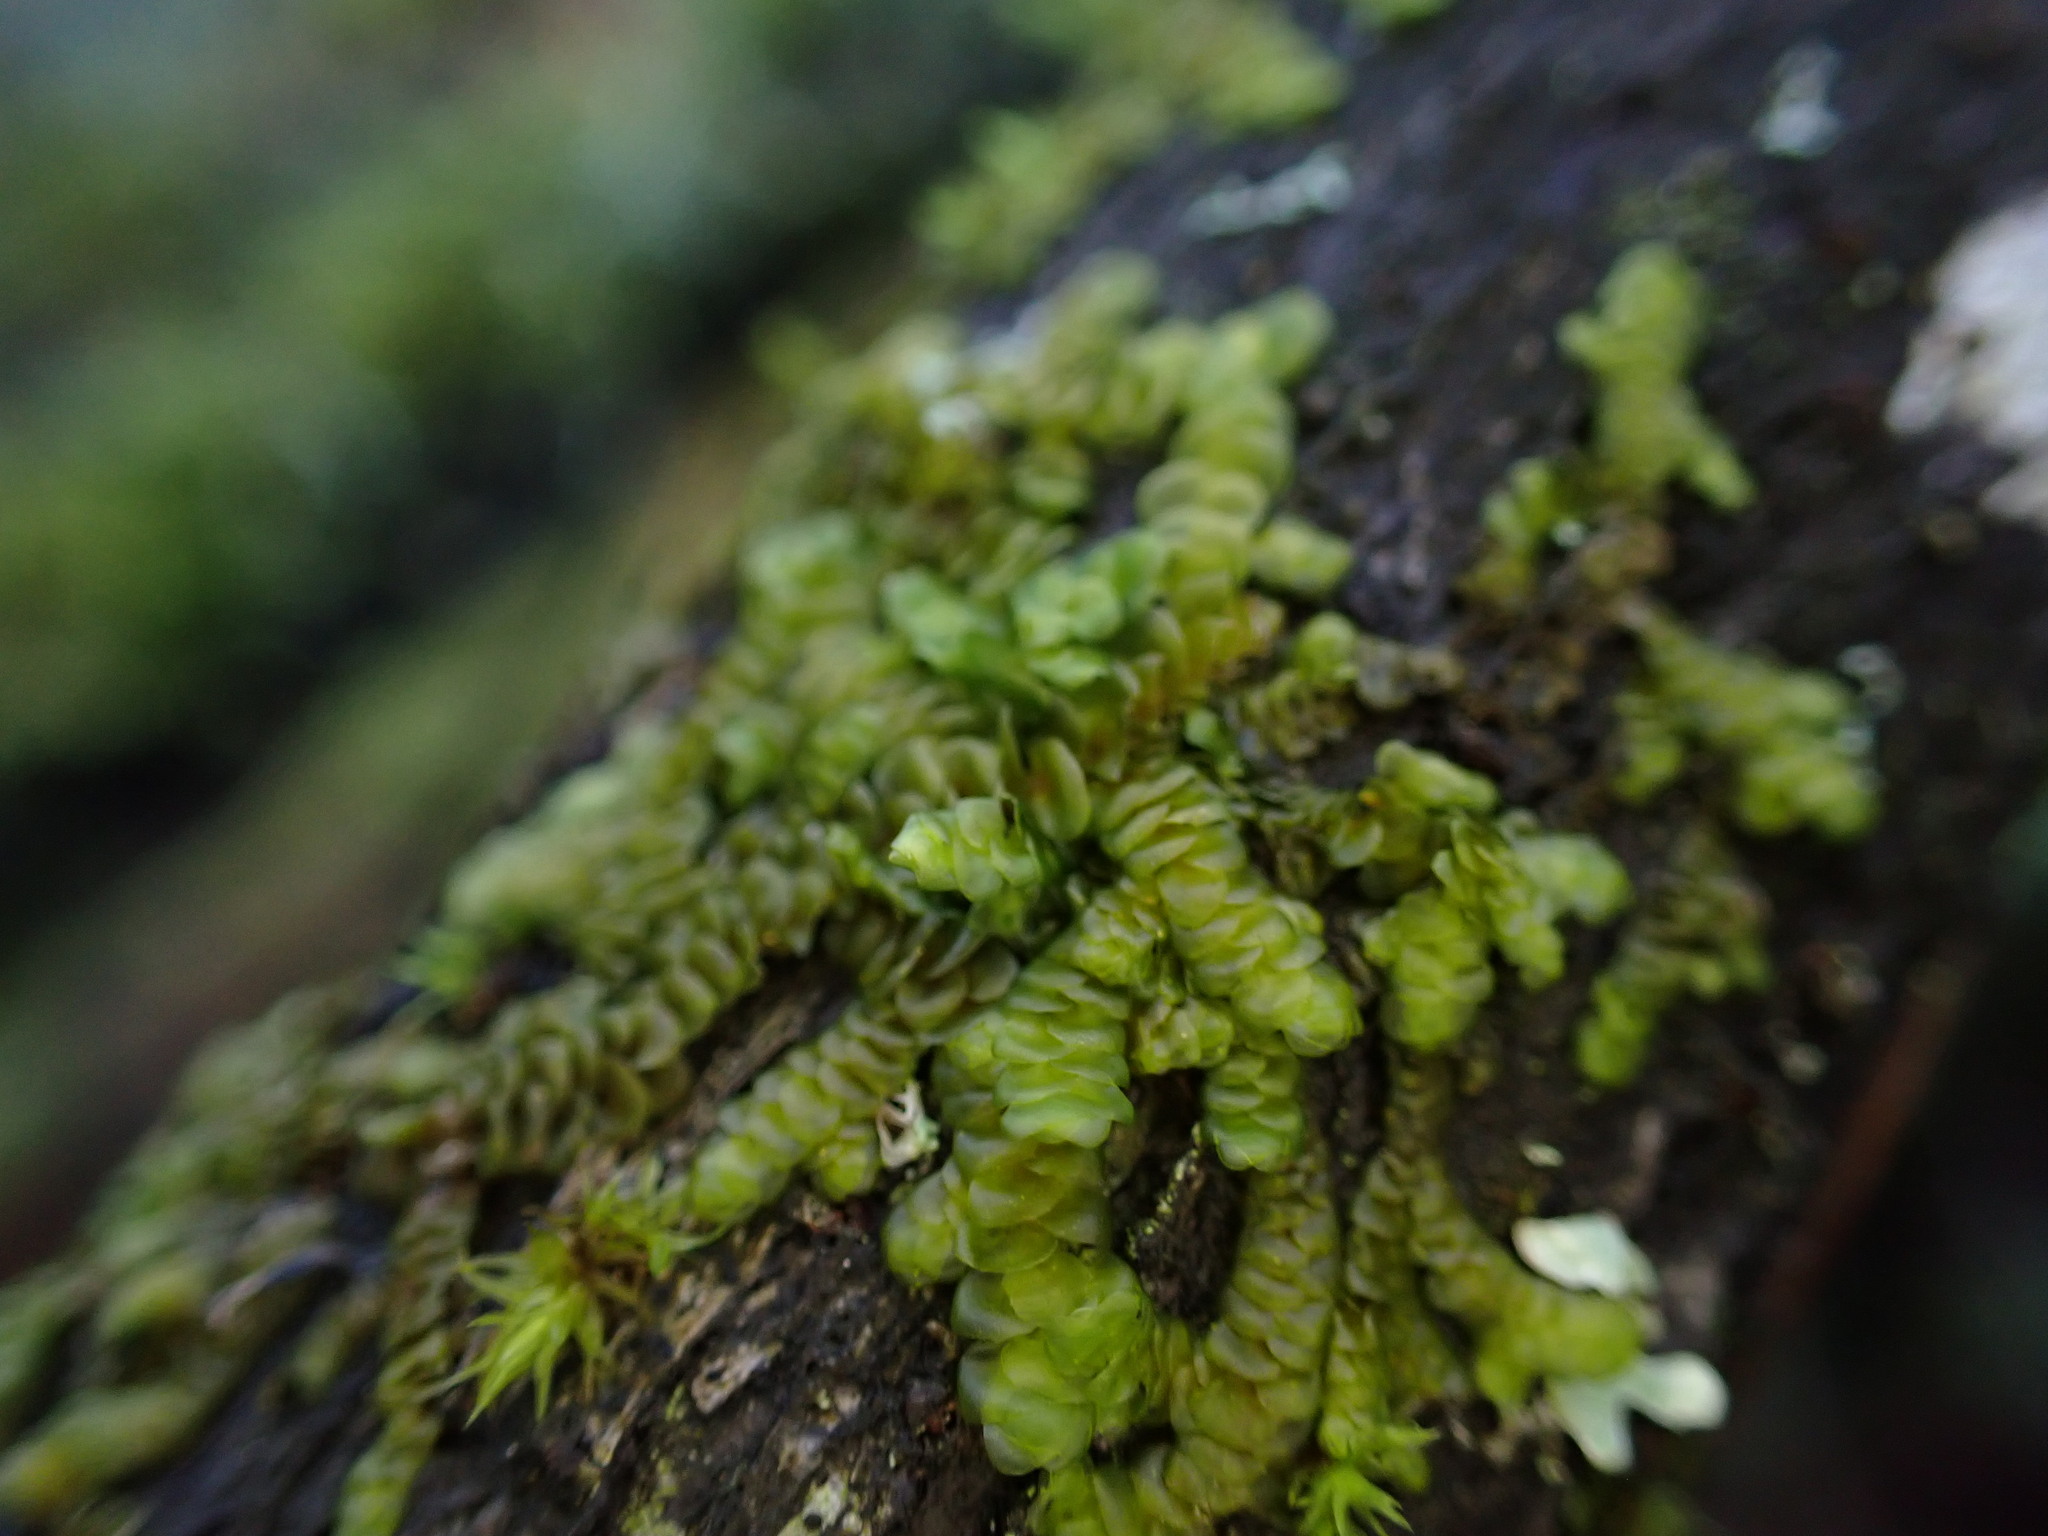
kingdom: Plantae
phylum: Marchantiophyta
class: Jungermanniopsida
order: Porellales
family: Porellaceae
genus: Porella
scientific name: Porella navicularis
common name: Tree ruffle liverwort
